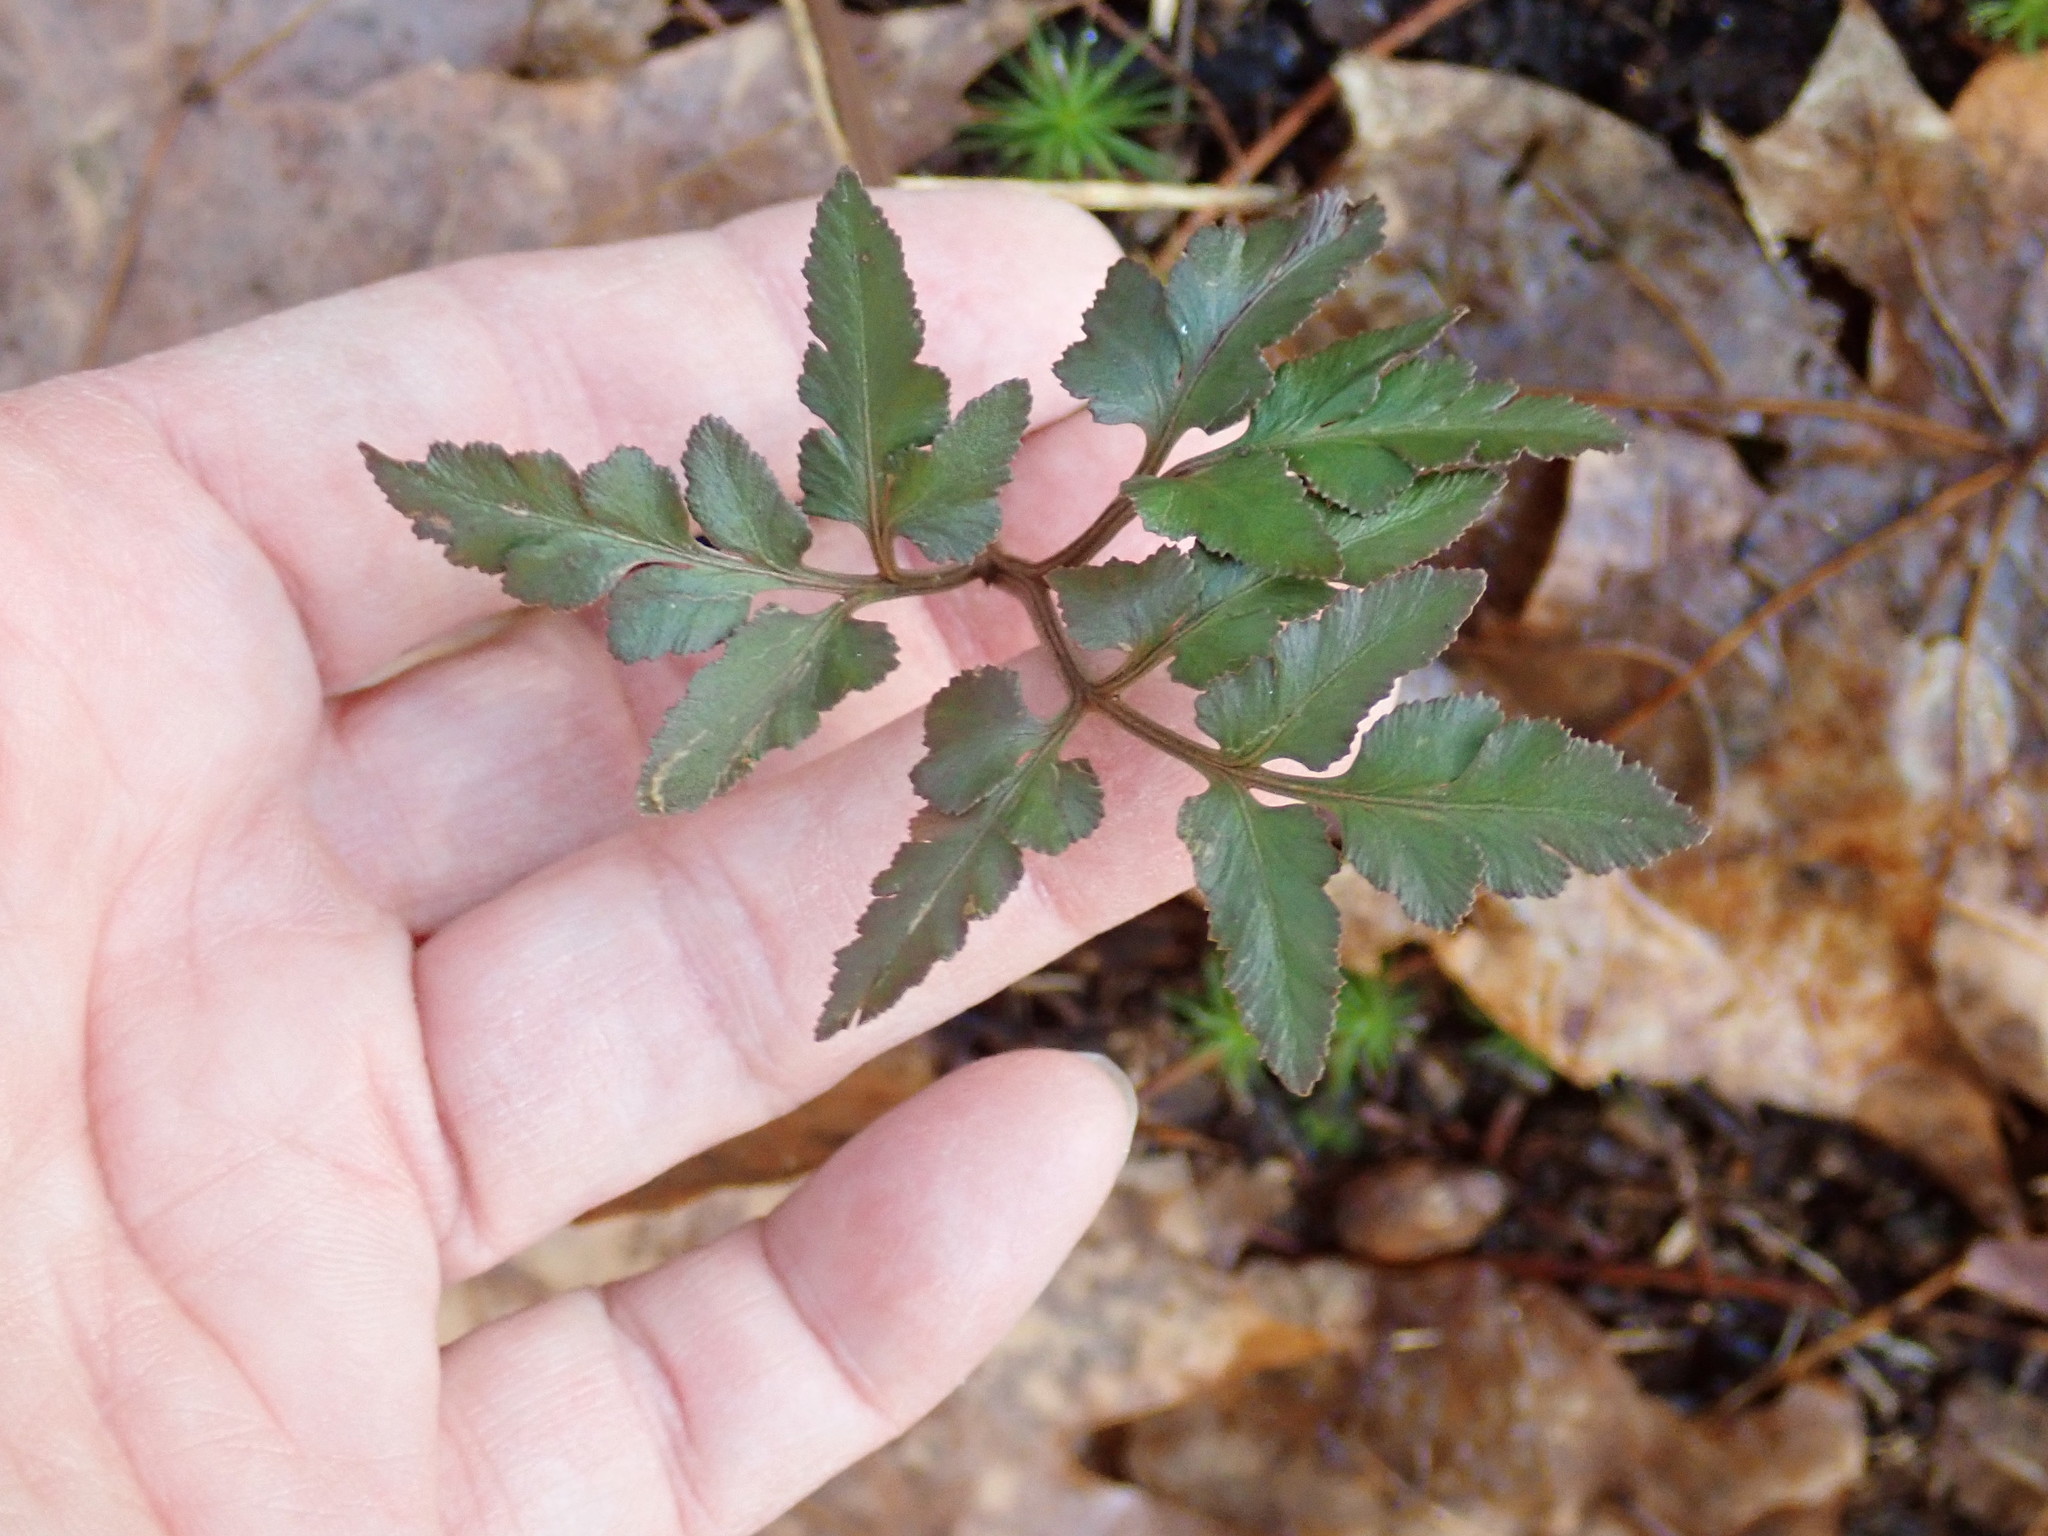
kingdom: Plantae
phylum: Tracheophyta
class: Polypodiopsida
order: Ophioglossales
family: Ophioglossaceae
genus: Sceptridium
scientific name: Sceptridium dissectum
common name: Cut-leaved grapefern
